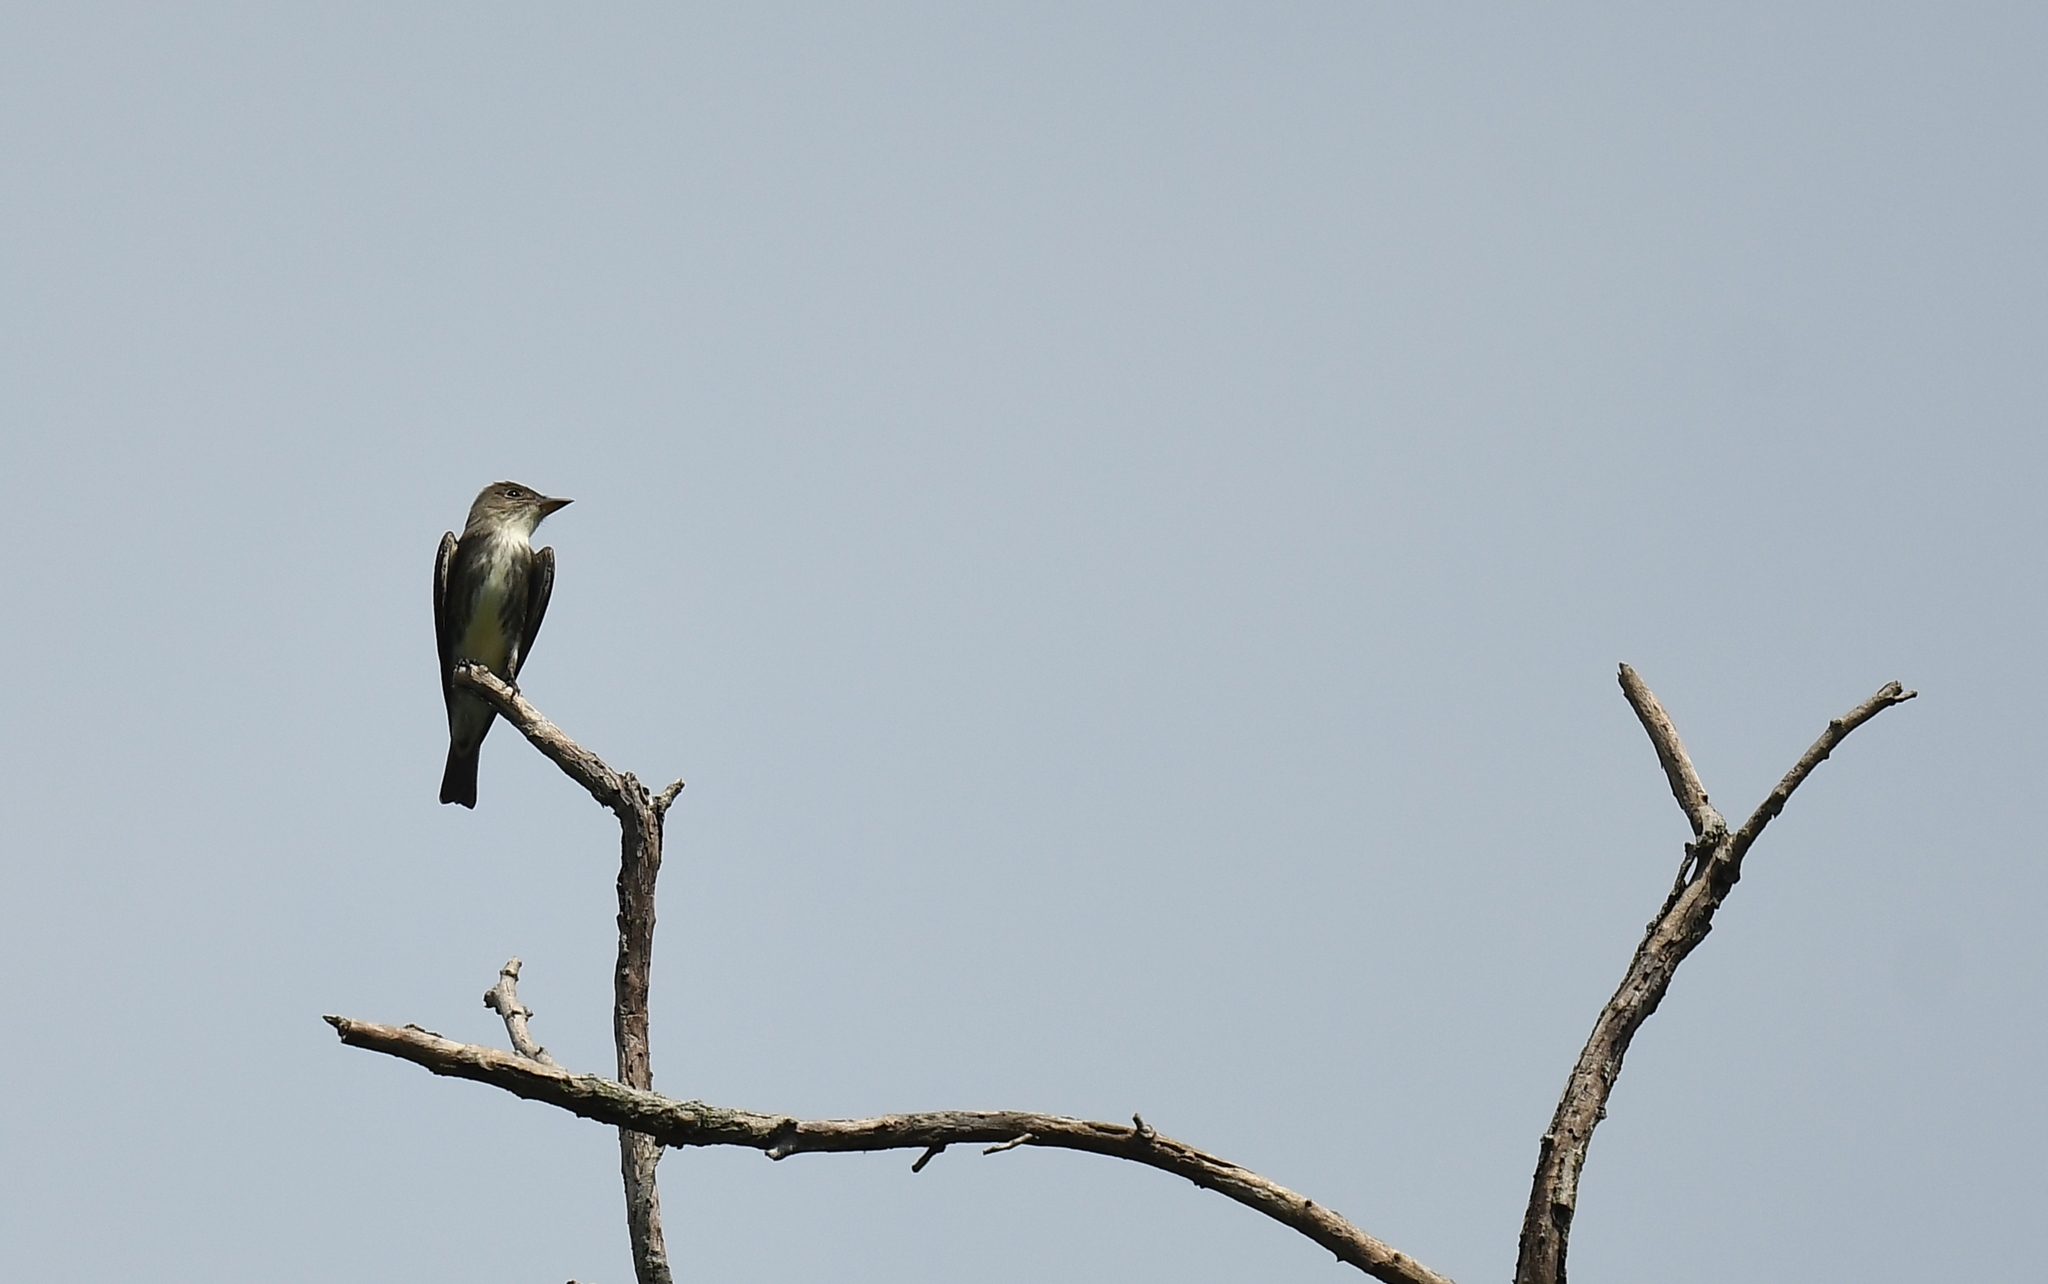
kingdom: Animalia
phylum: Chordata
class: Aves
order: Passeriformes
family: Tyrannidae
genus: Contopus
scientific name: Contopus cooperi
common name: Olive-sided flycatcher
